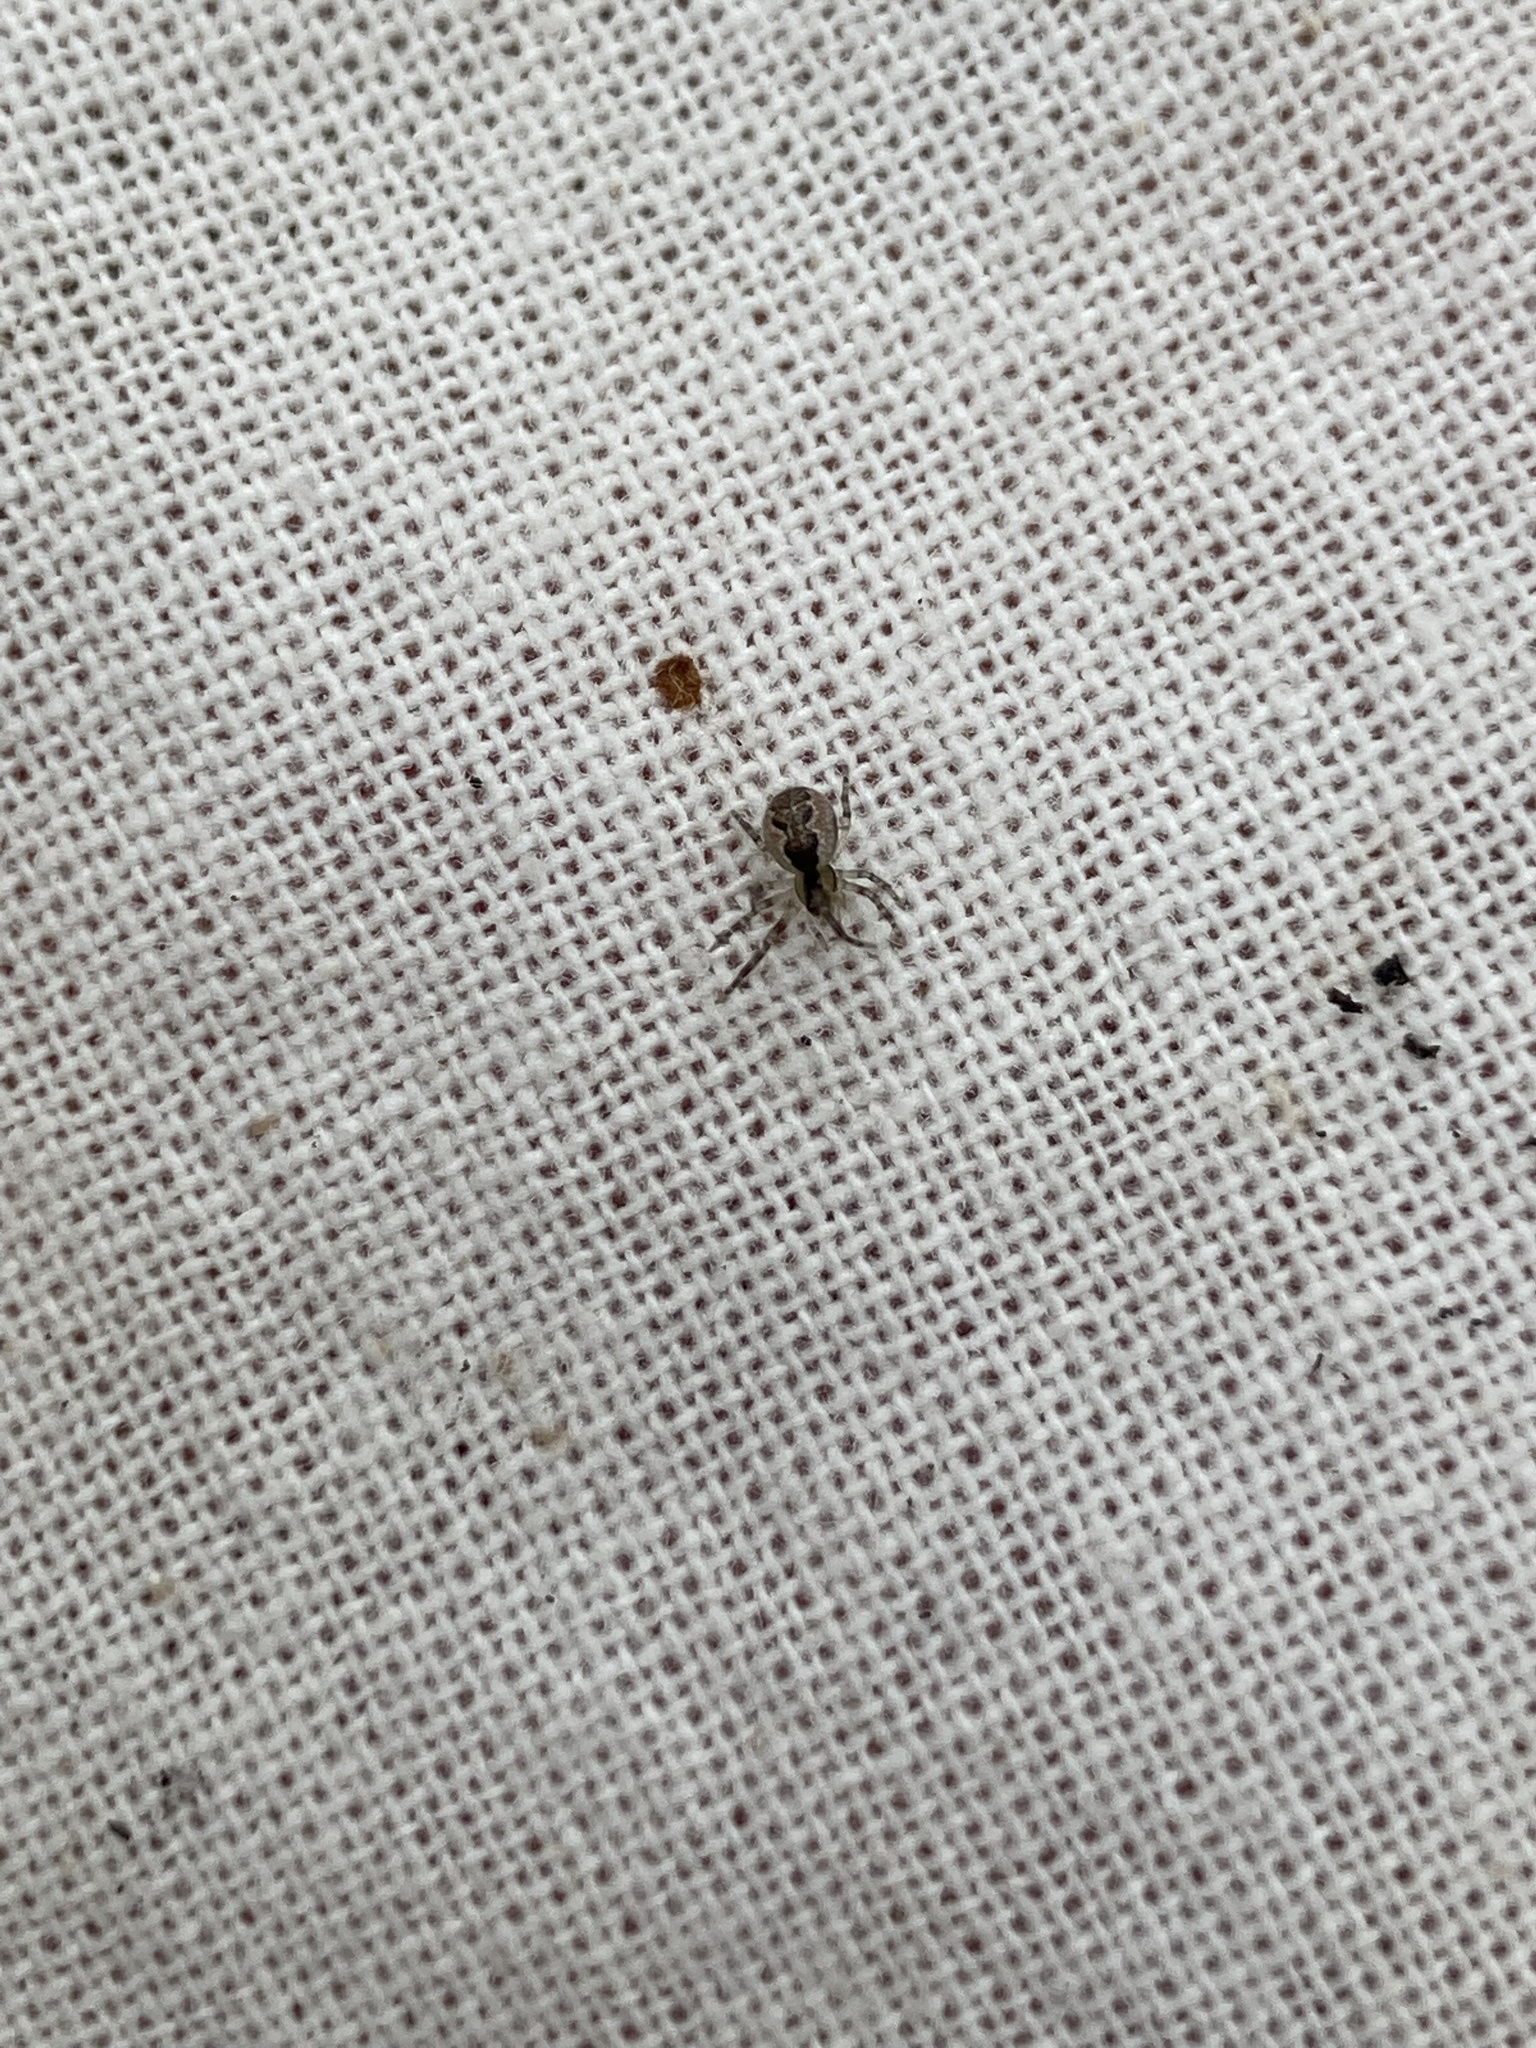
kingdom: Animalia
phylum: Arthropoda
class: Arachnida
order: Araneae
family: Theridiidae
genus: Anelosimus
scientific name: Anelosimus vittatus
